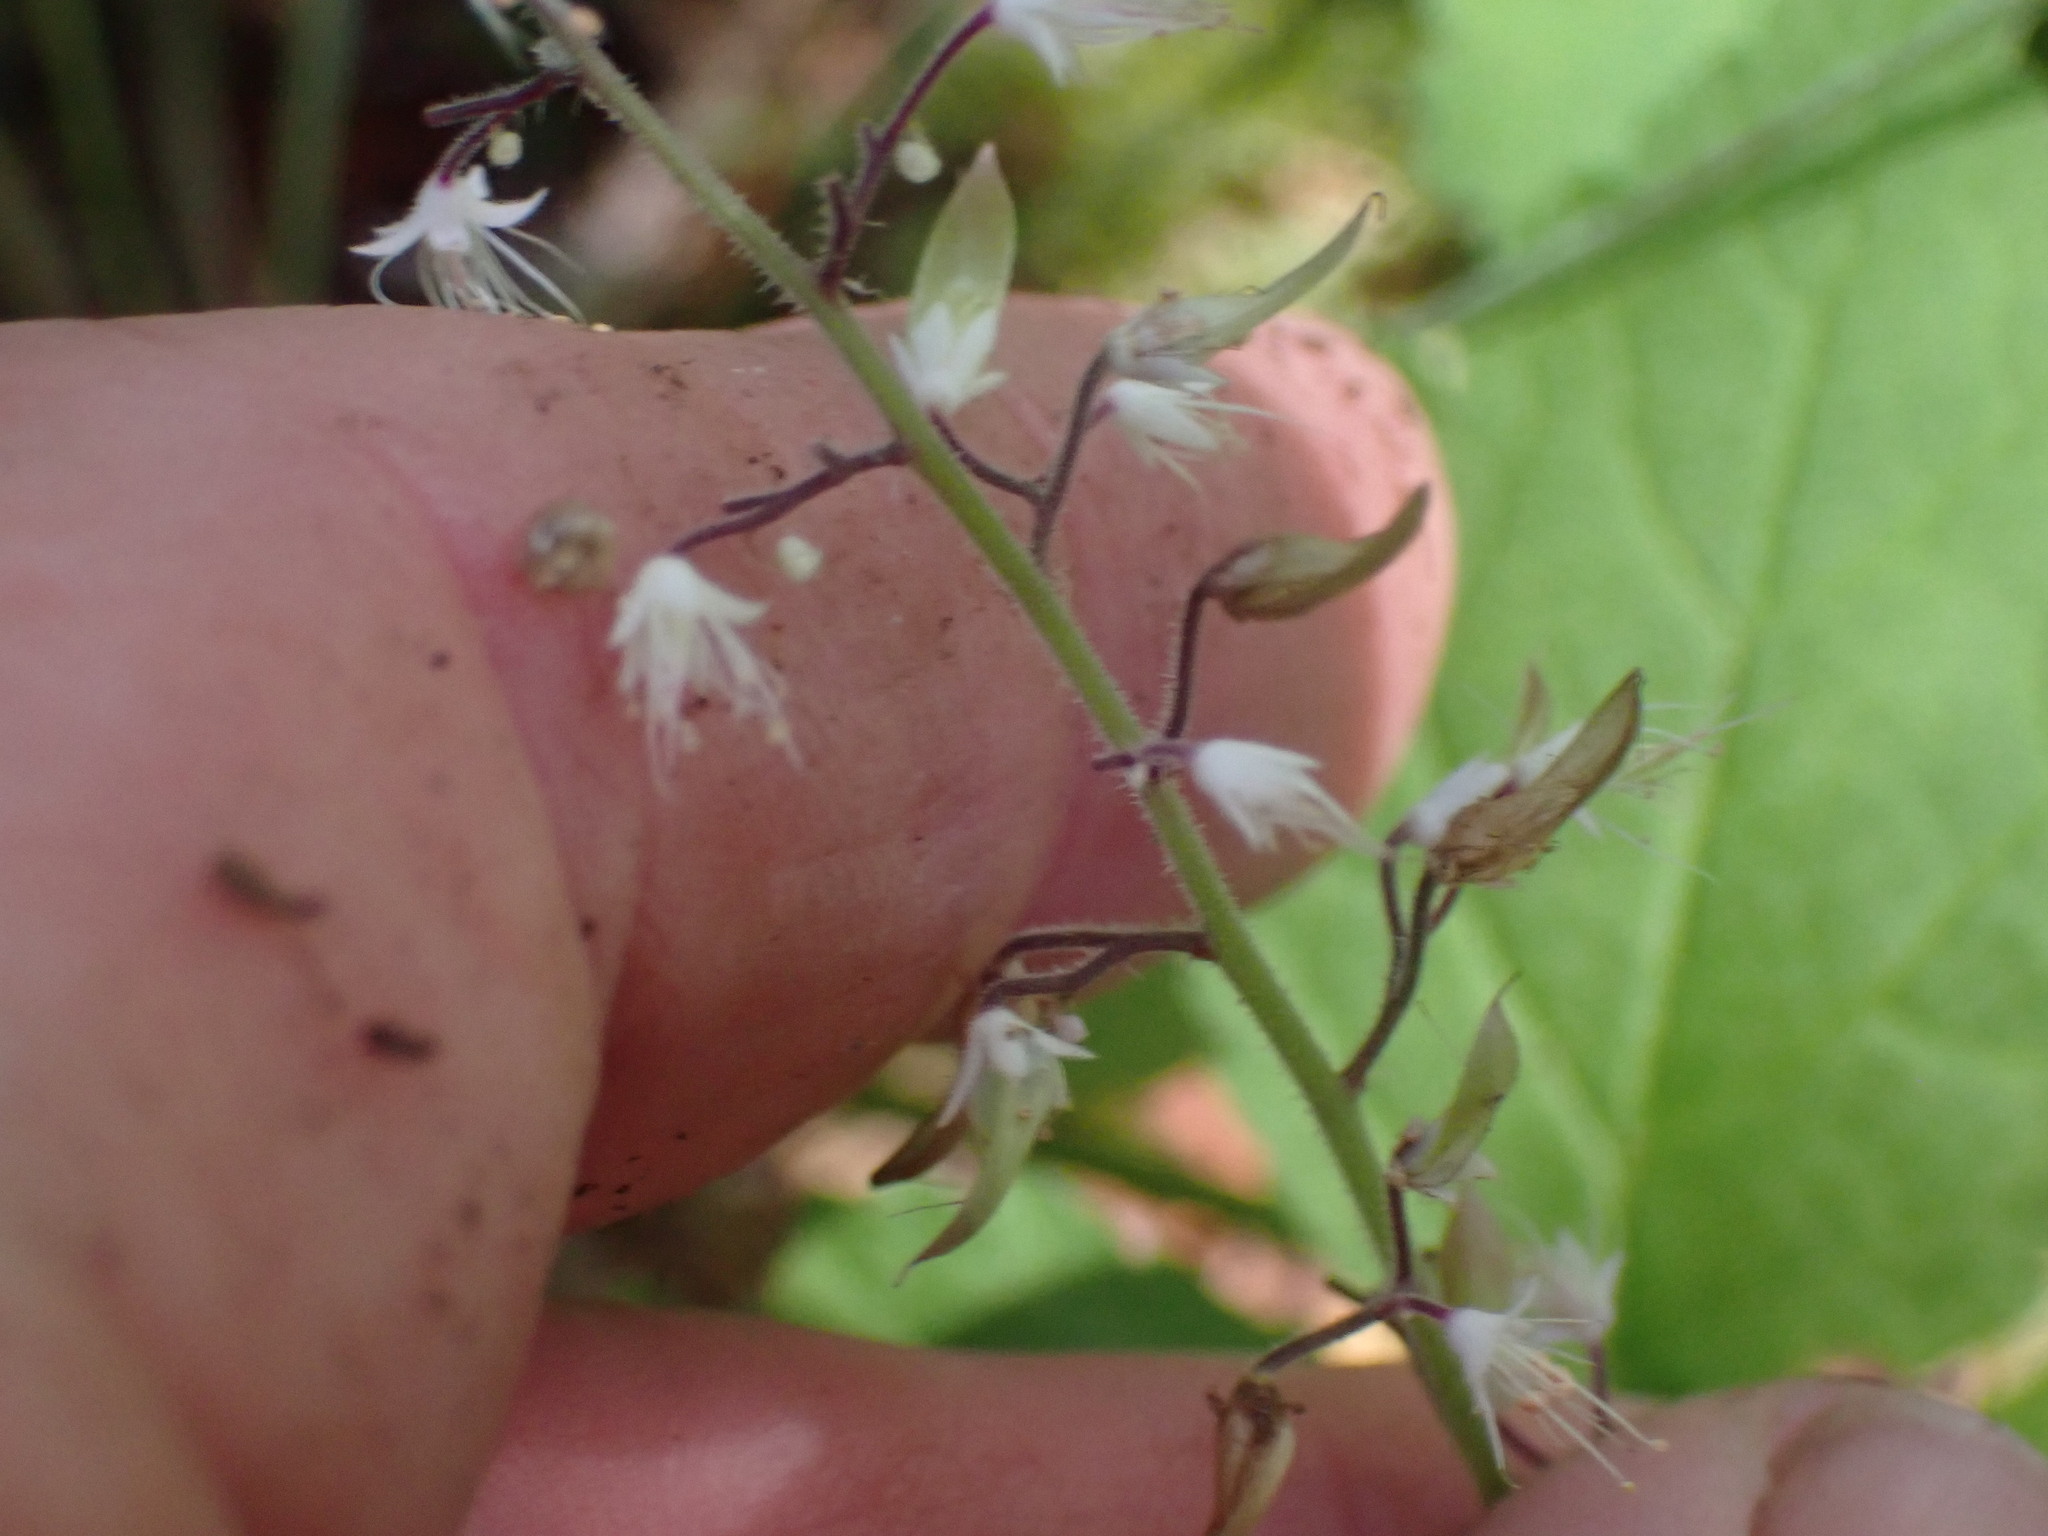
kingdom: Plantae
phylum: Tracheophyta
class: Magnoliopsida
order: Saxifragales
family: Saxifragaceae
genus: Tiarella
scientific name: Tiarella trifoliata
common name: Sugar-scoop
